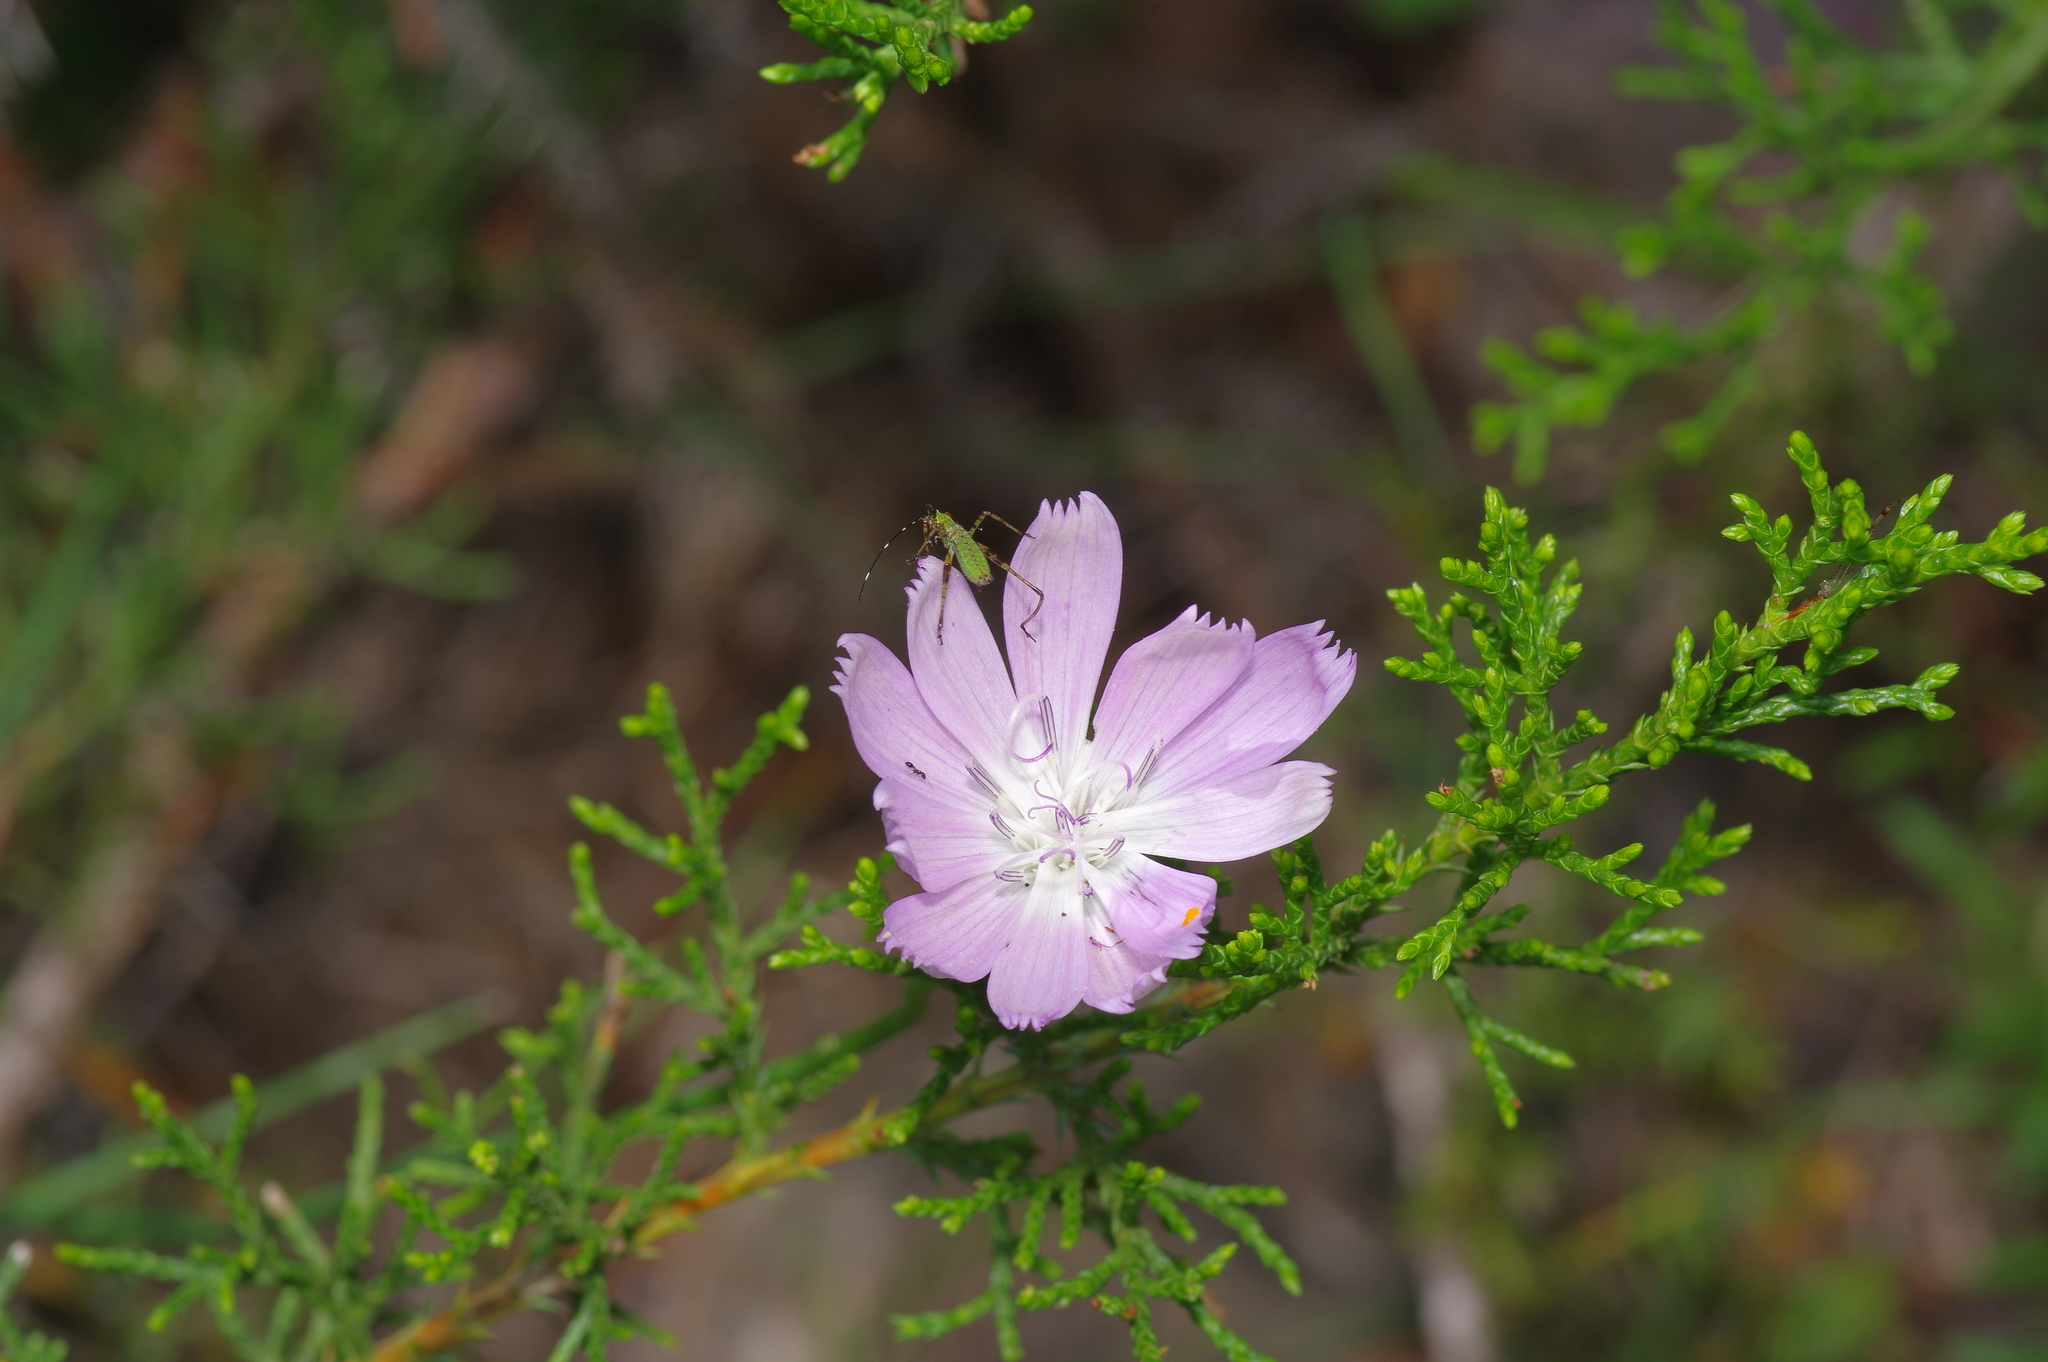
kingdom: Plantae
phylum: Tracheophyta
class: Magnoliopsida
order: Asterales
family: Asteraceae
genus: Lygodesmia
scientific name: Lygodesmia texana
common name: Texas skeleton-plant
